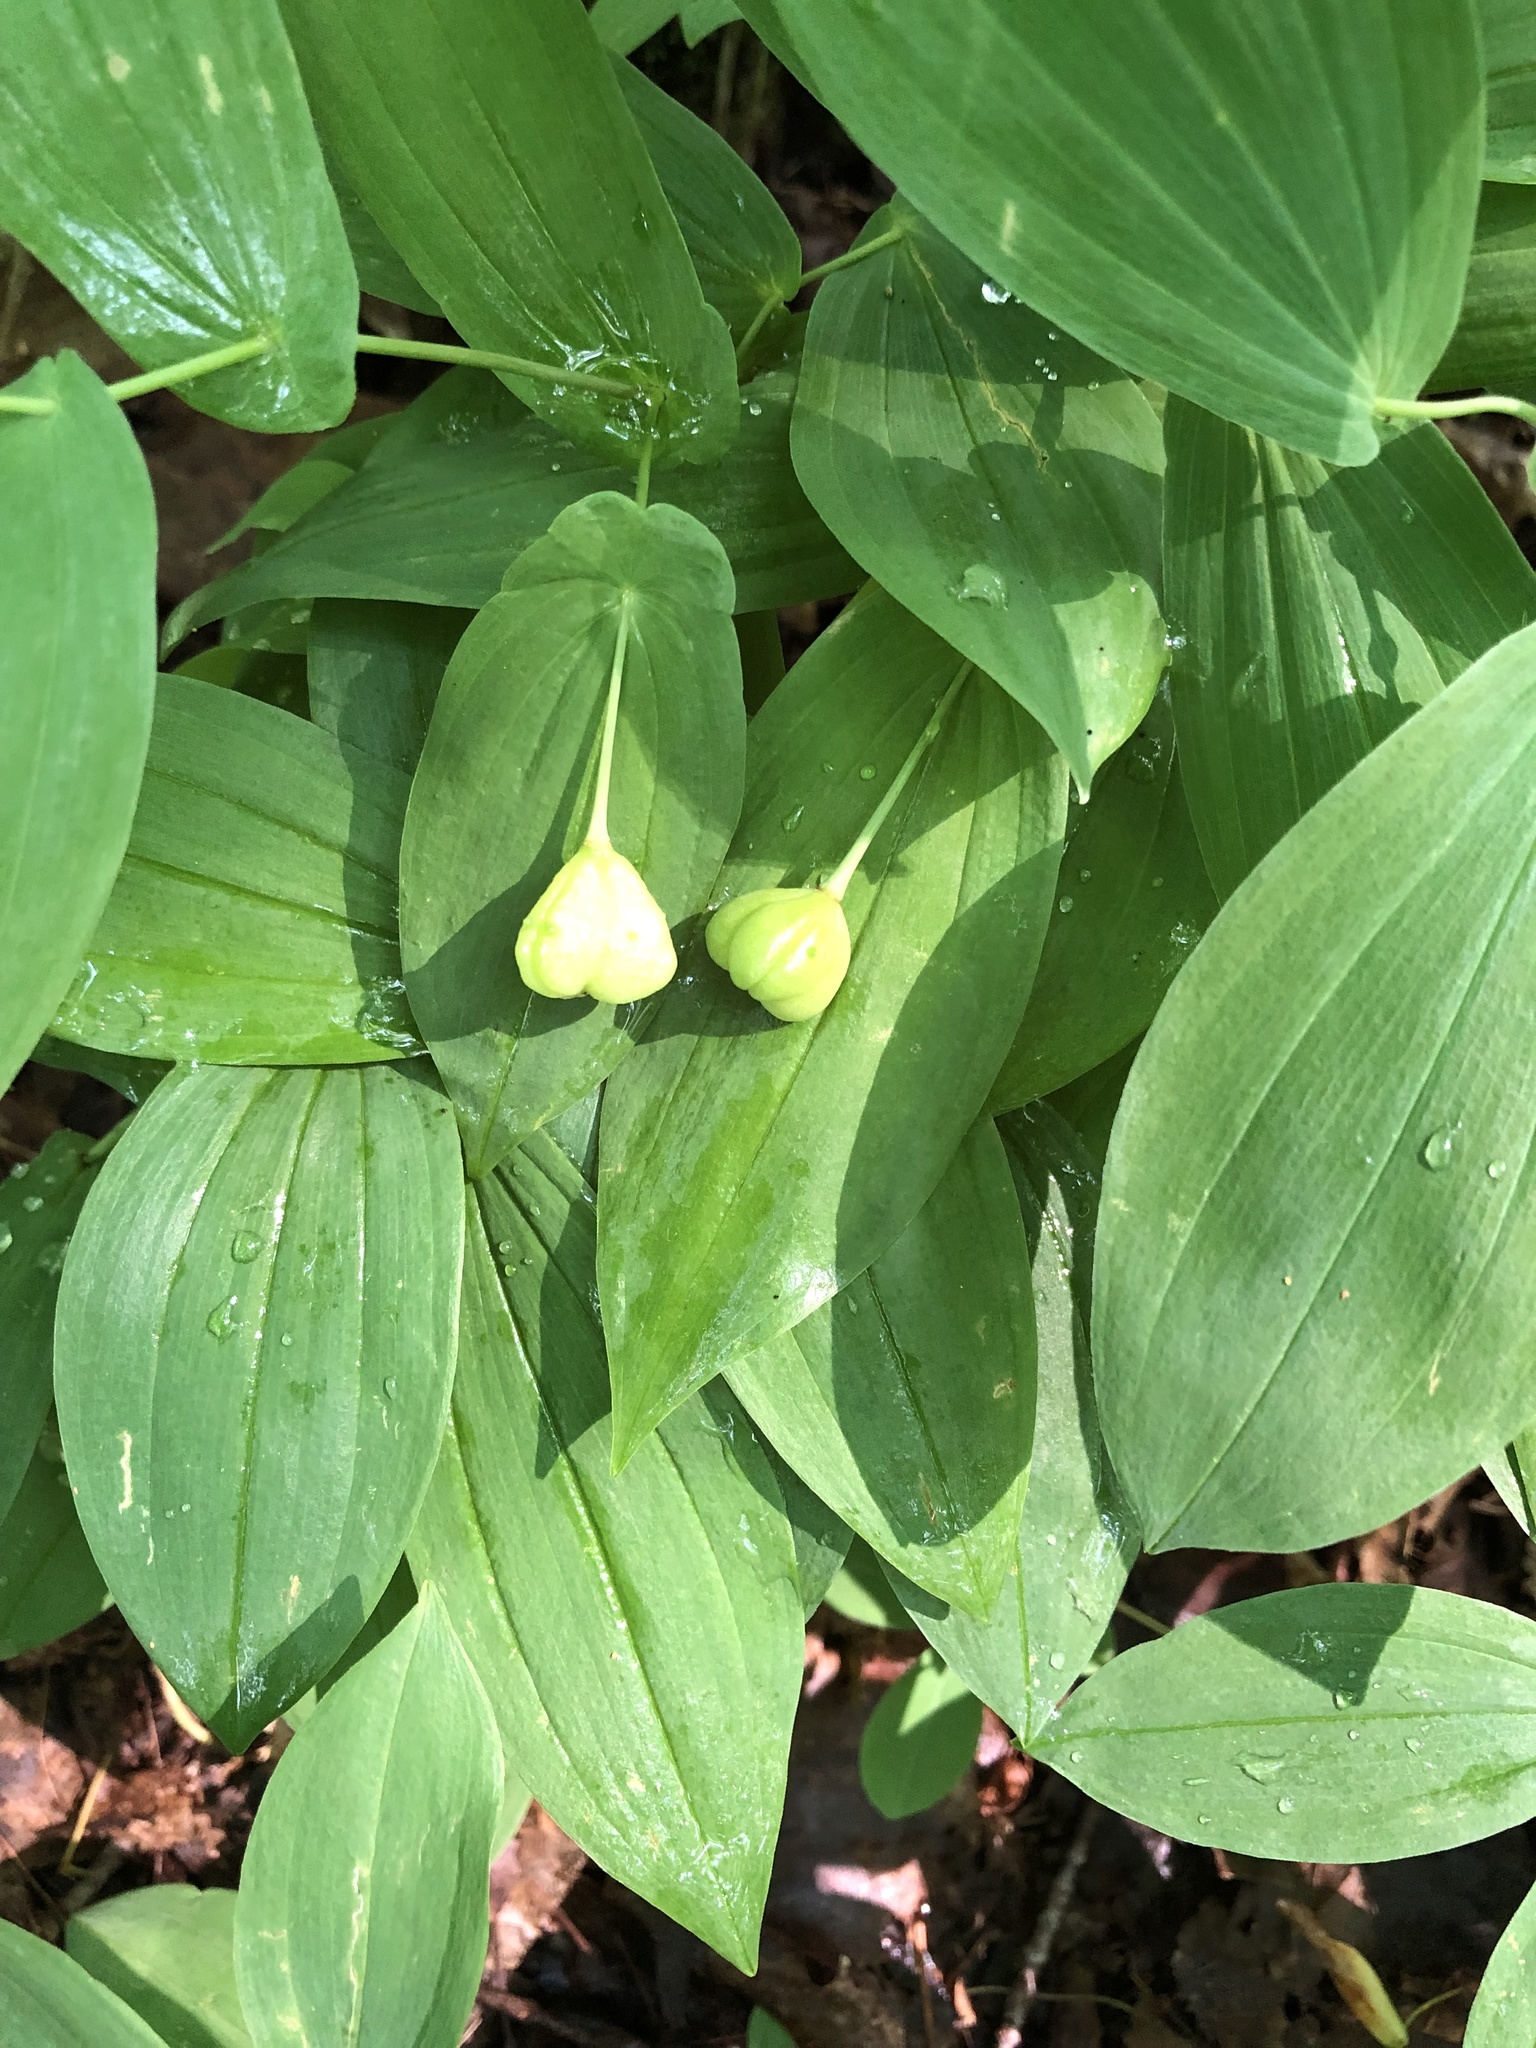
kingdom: Plantae
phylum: Tracheophyta
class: Liliopsida
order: Liliales
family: Colchicaceae
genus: Uvularia
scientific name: Uvularia grandiflora
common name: Bellwort
